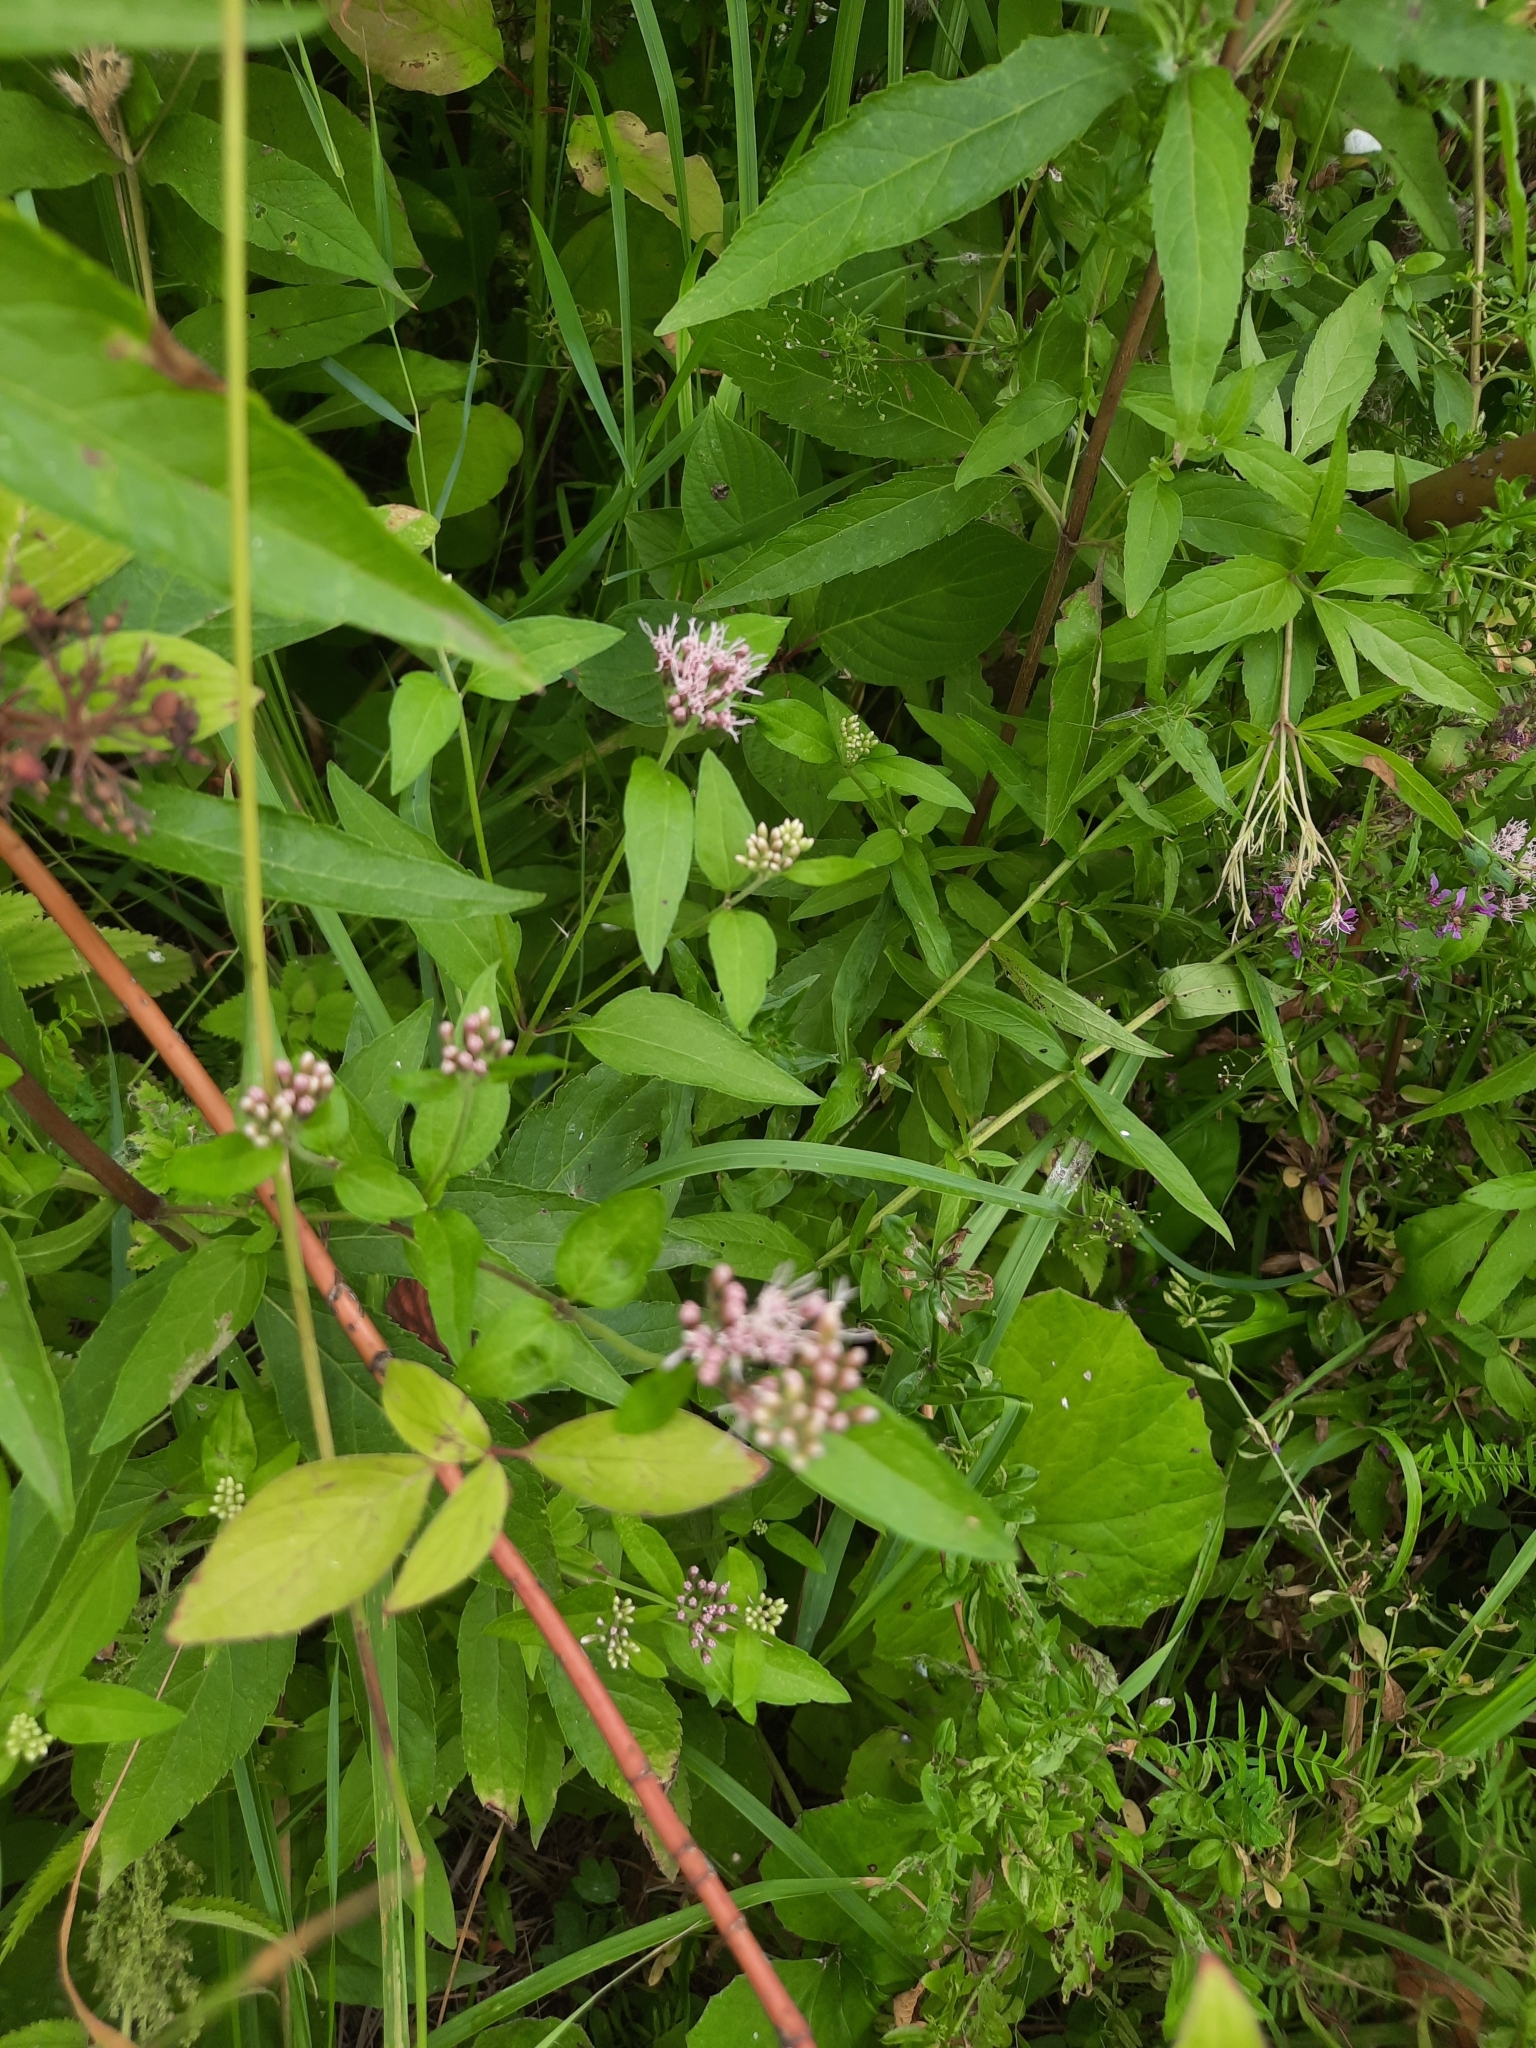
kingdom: Plantae
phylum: Tracheophyta
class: Magnoliopsida
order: Asterales
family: Asteraceae
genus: Eupatorium
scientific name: Eupatorium cannabinum
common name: Hemp-agrimony
